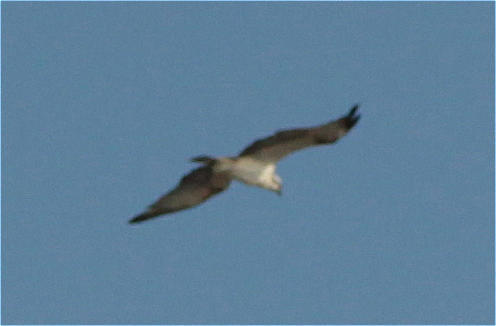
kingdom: Animalia
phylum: Chordata
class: Aves
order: Accipitriformes
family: Pandionidae
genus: Pandion
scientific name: Pandion haliaetus
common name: Osprey
